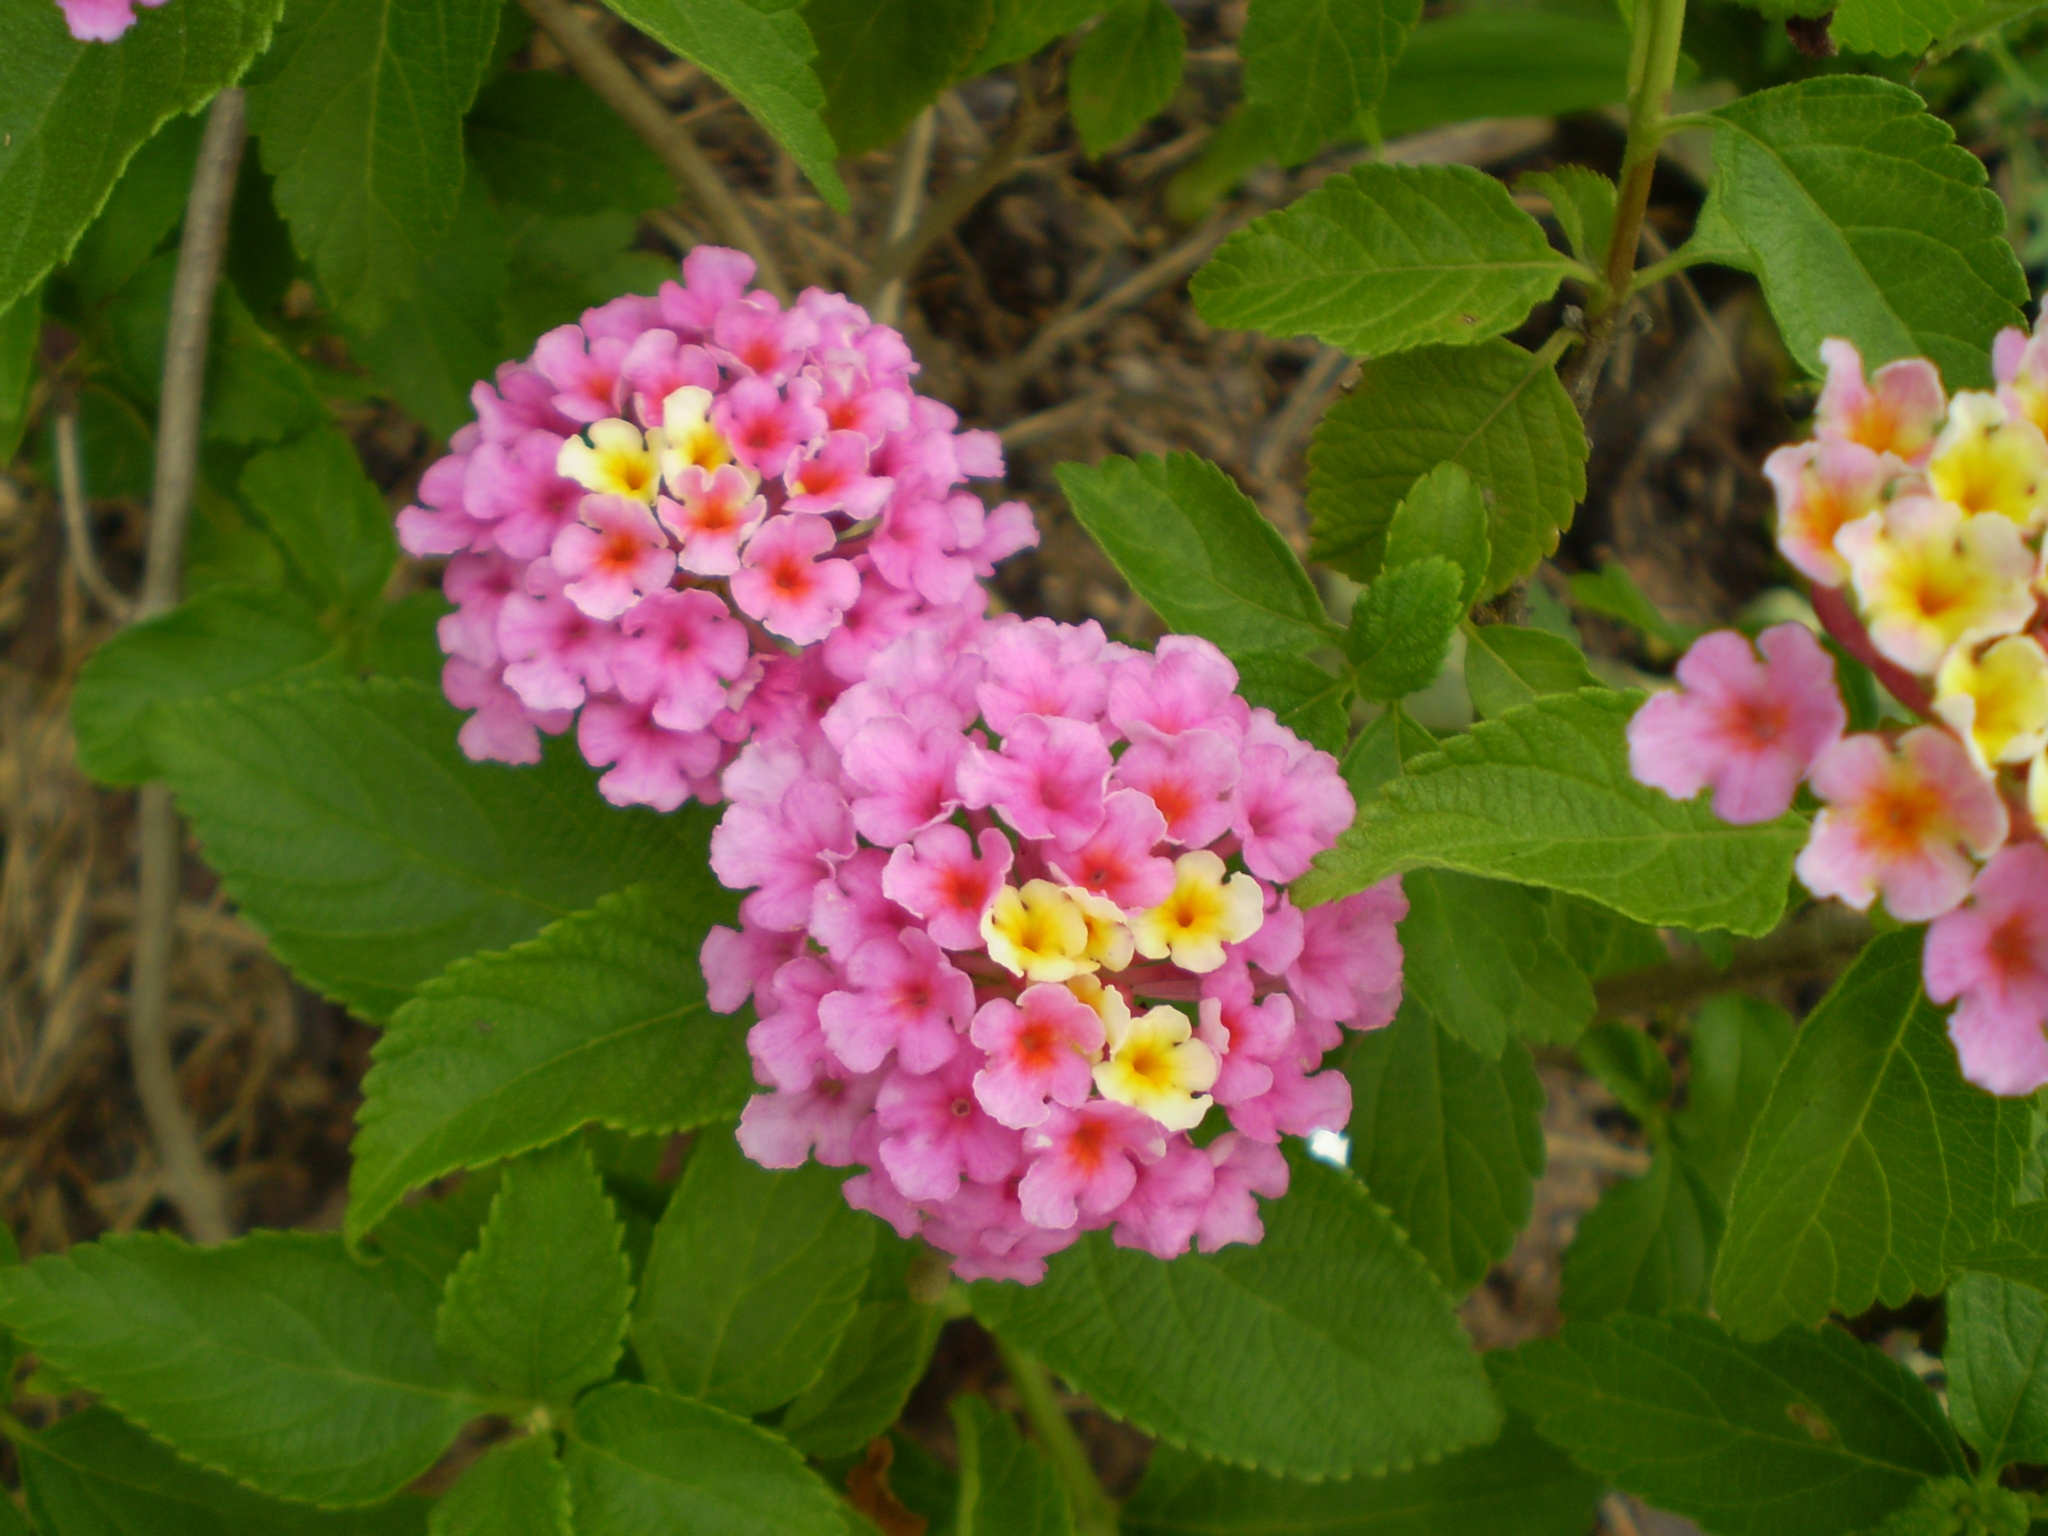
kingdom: Plantae
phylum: Tracheophyta
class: Magnoliopsida
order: Lamiales
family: Verbenaceae
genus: Lantana
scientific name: Lantana strigocamara
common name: Lantana
